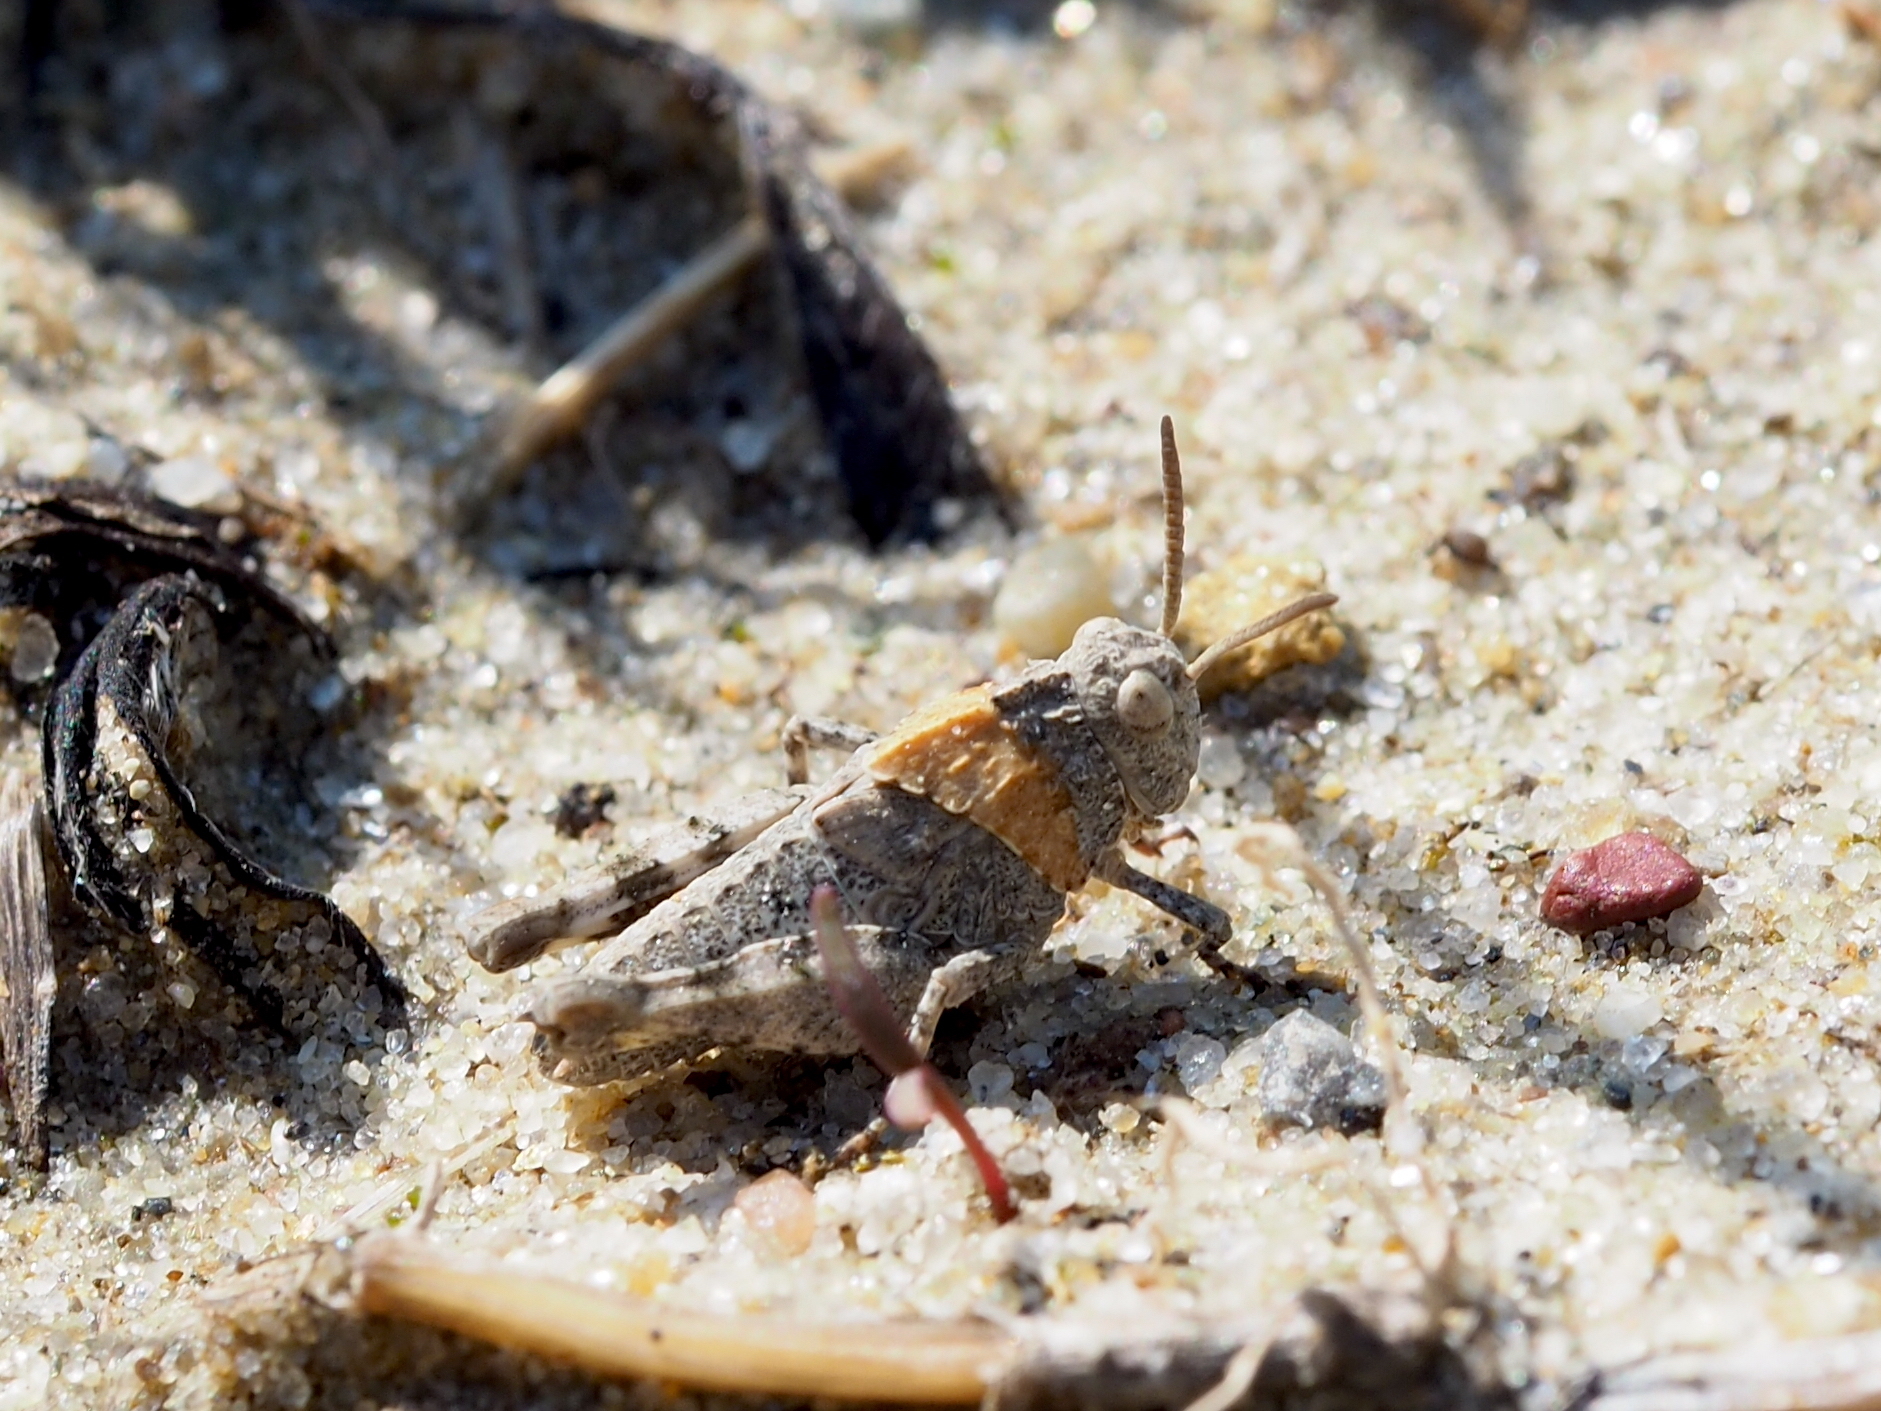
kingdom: Animalia
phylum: Arthropoda
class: Insecta
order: Orthoptera
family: Acrididae
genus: Oedipoda
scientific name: Oedipoda caerulescens
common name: Blue-winged grasshopper
